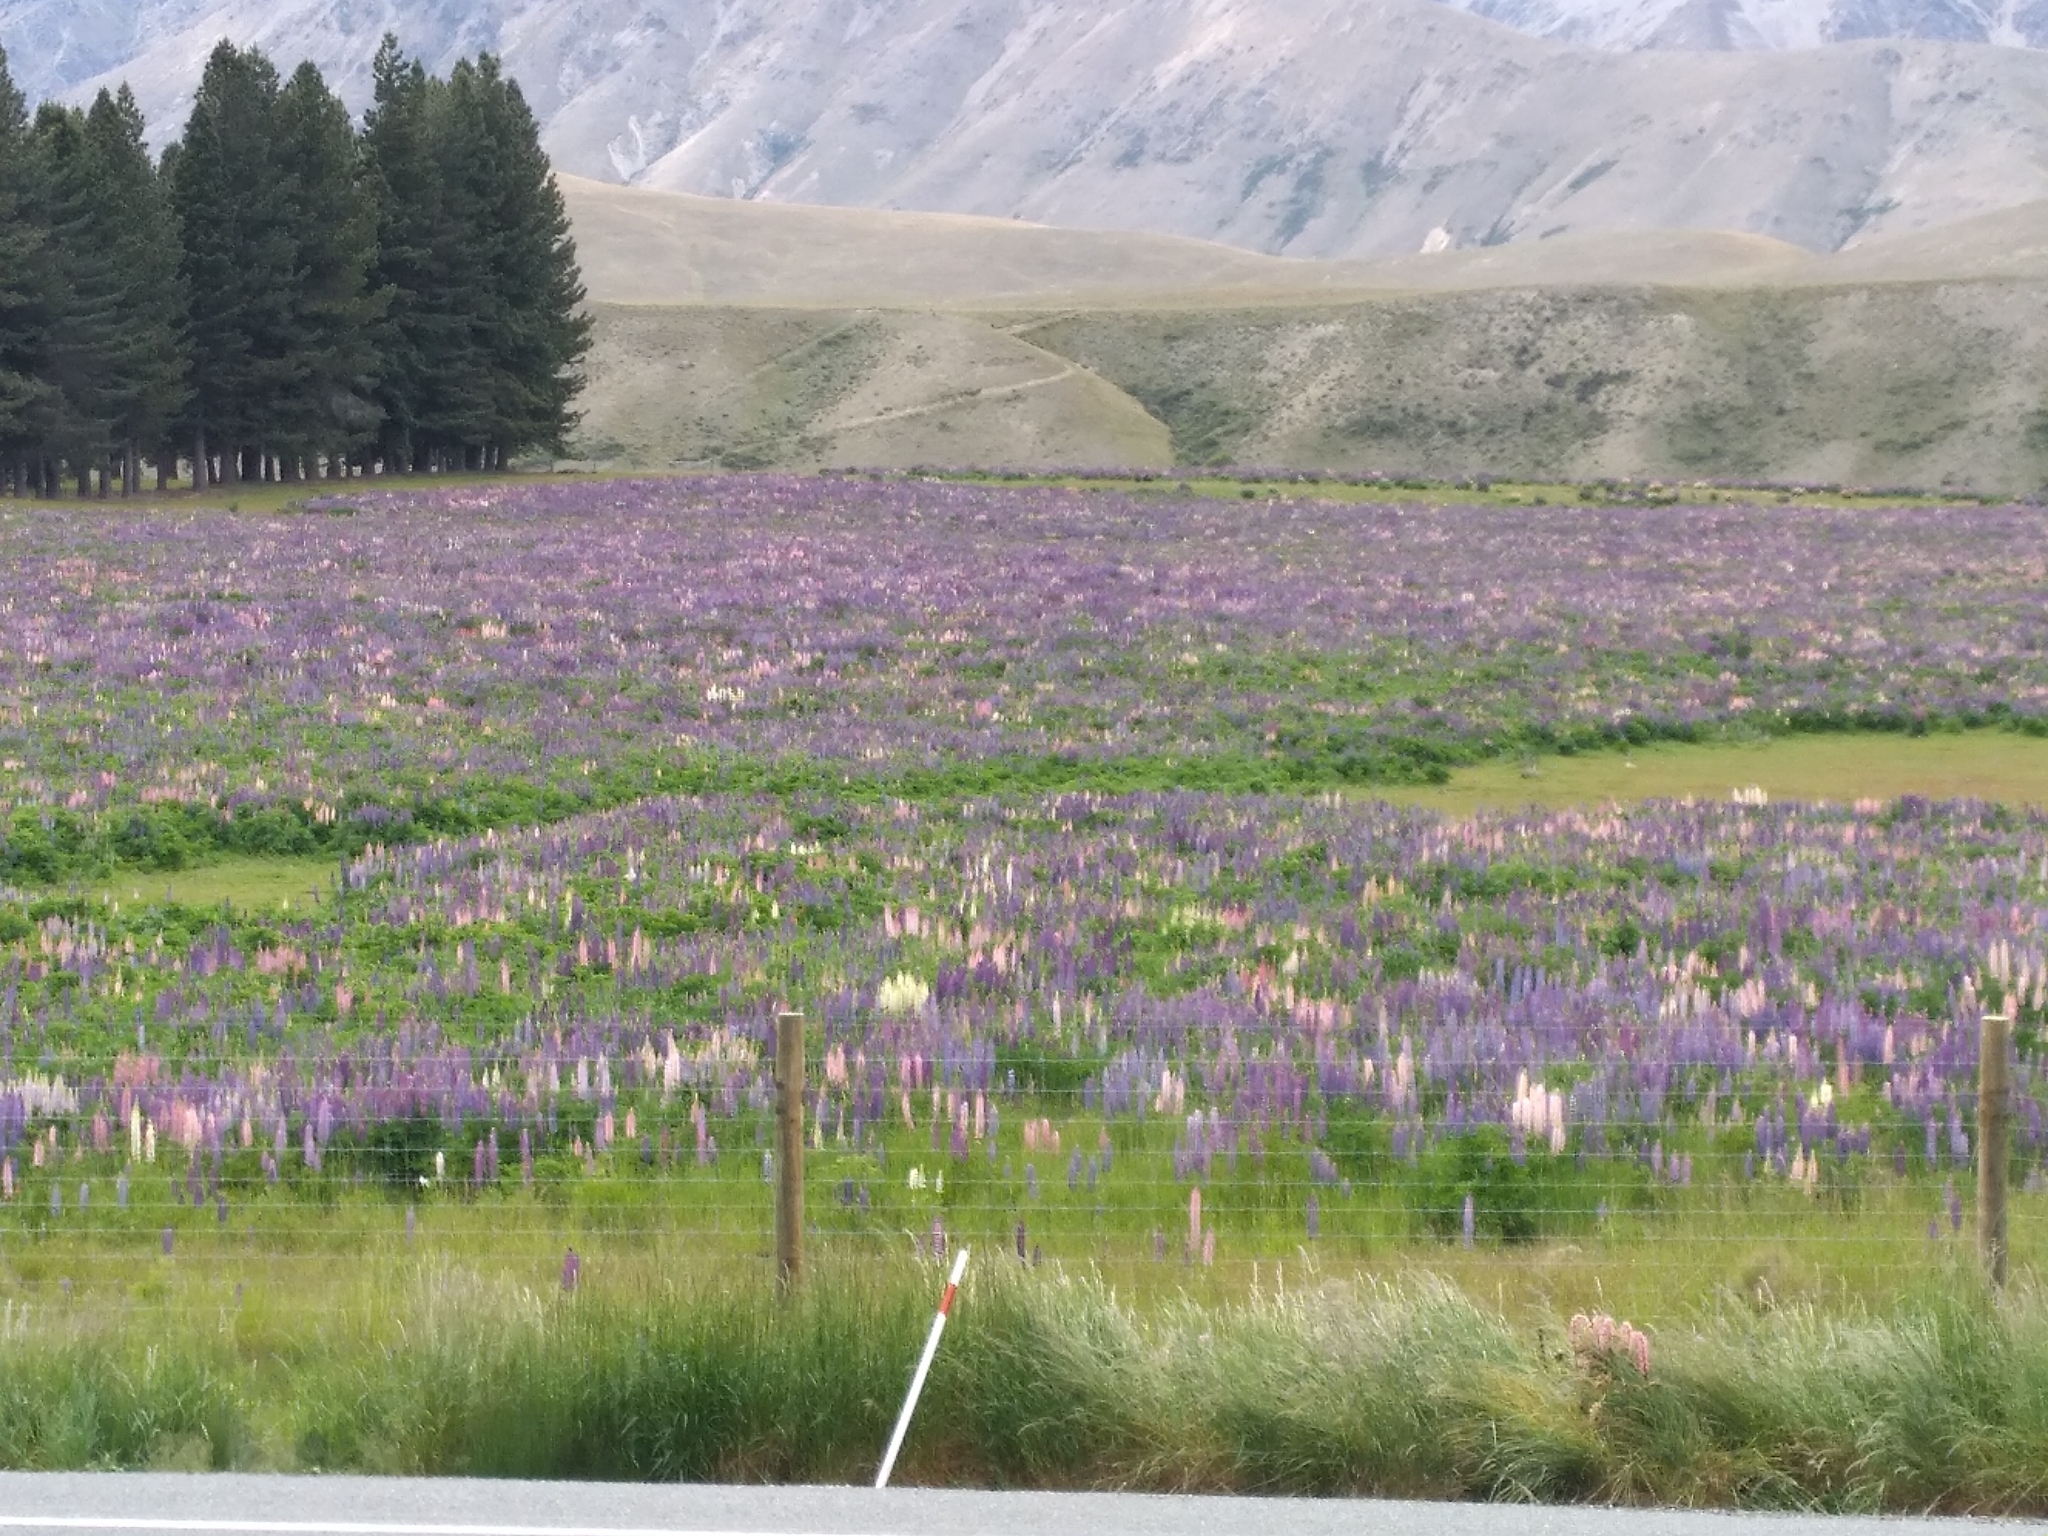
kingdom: Plantae
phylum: Tracheophyta
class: Magnoliopsida
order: Fabales
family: Fabaceae
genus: Lupinus
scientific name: Lupinus polyphyllus
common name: Garden lupin
